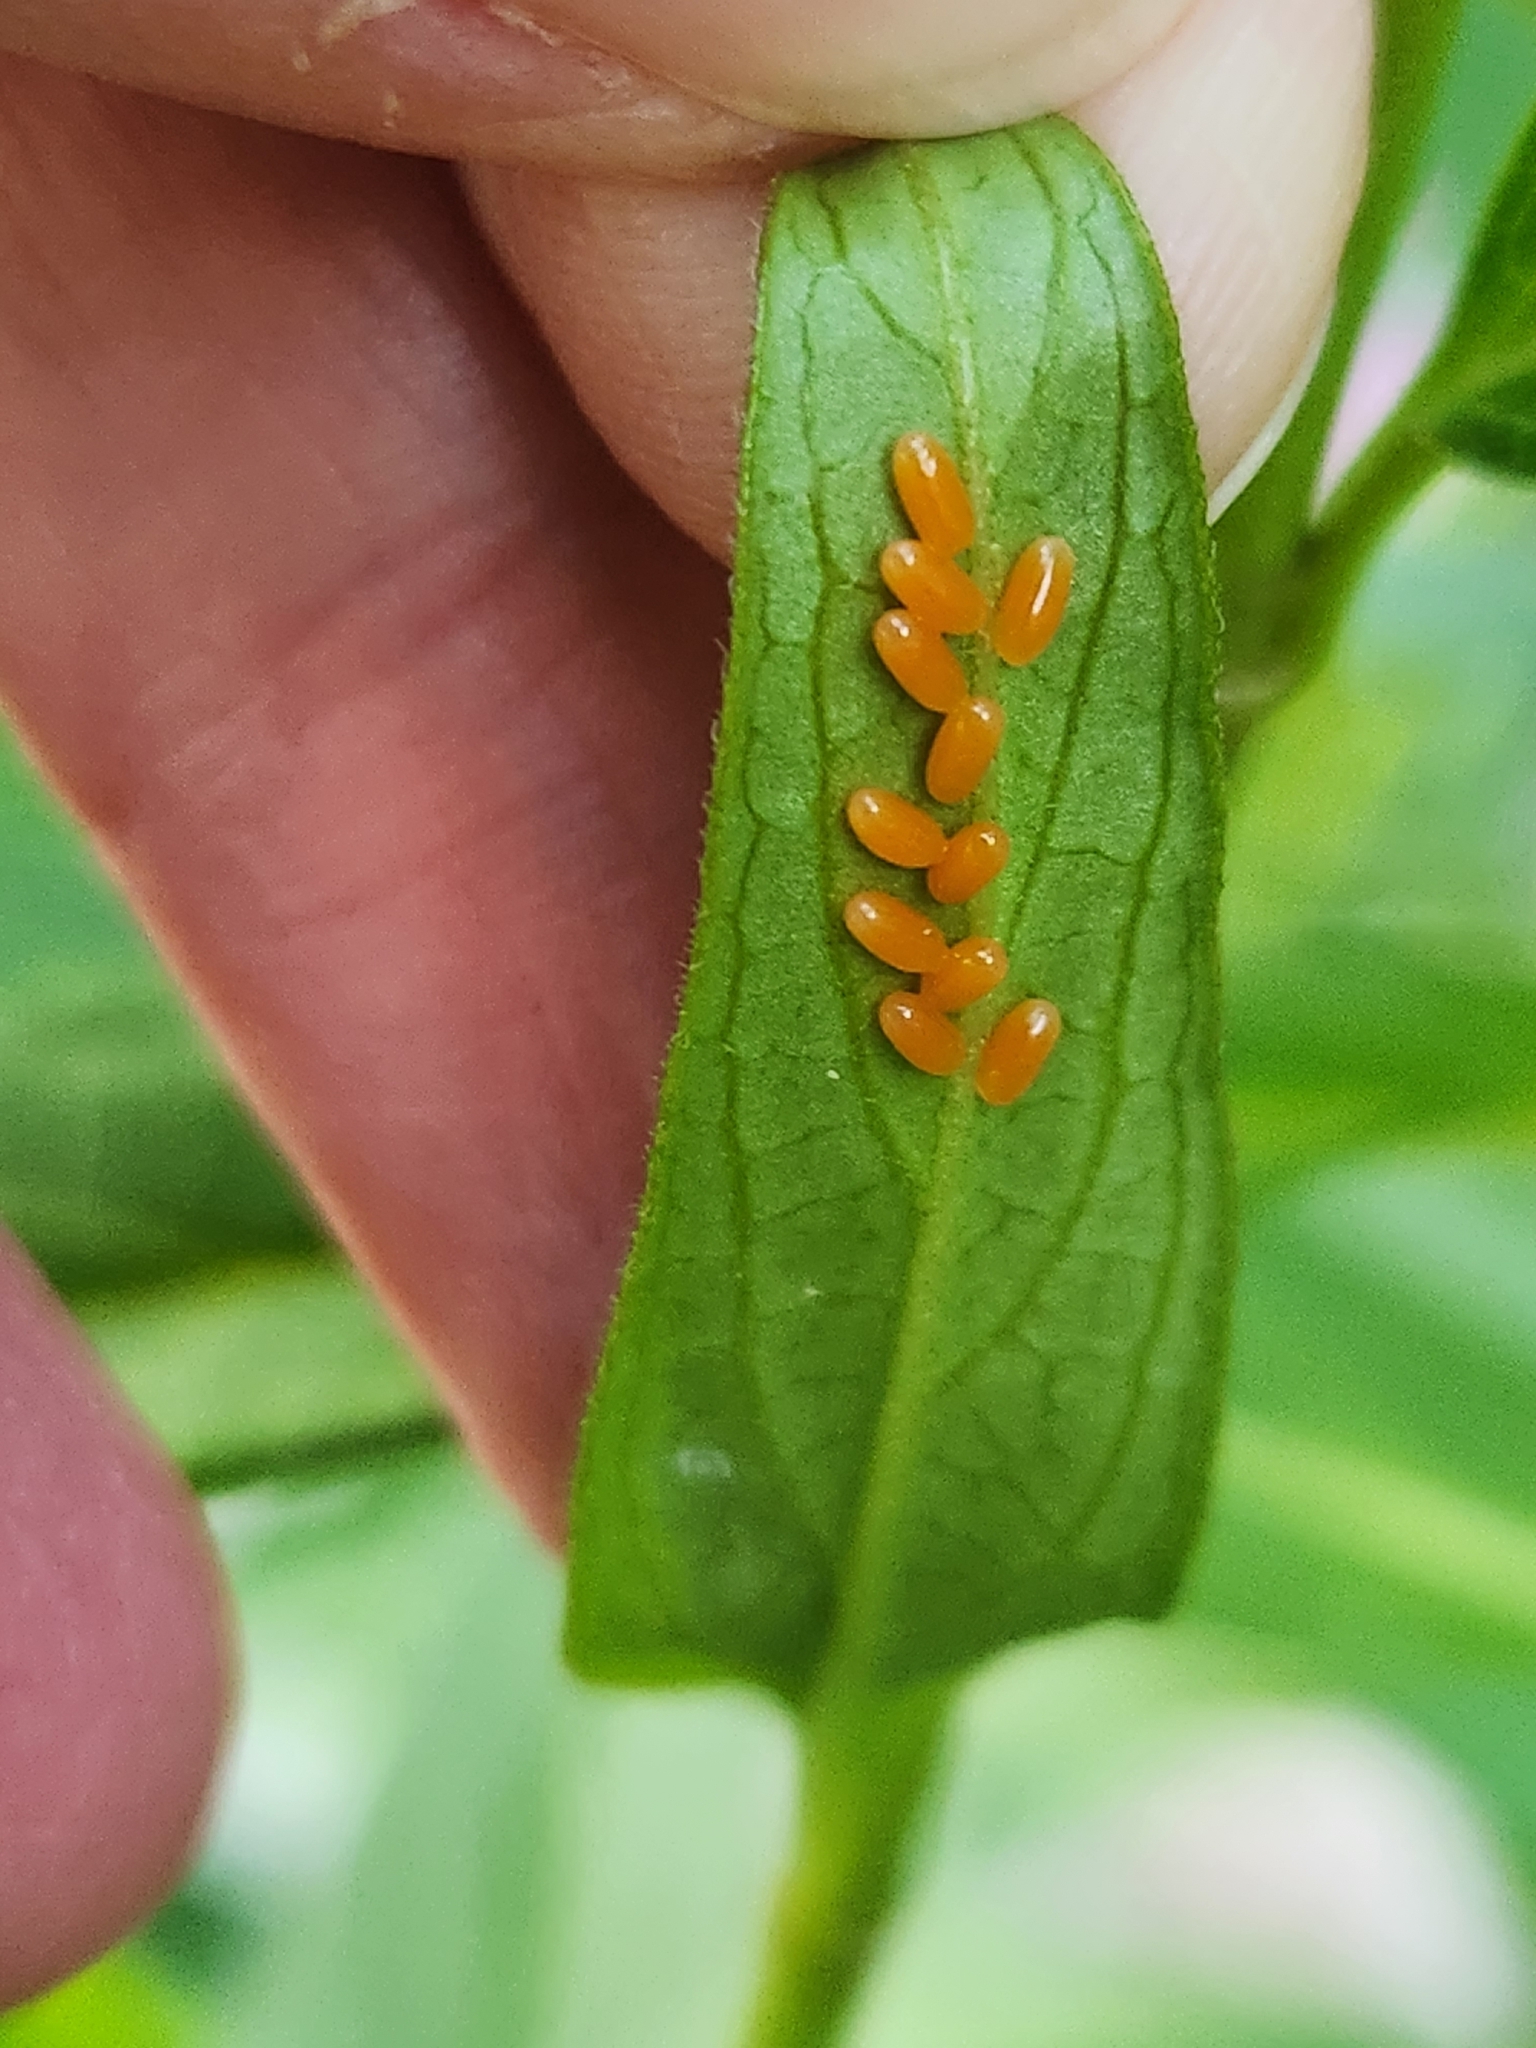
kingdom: Animalia
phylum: Arthropoda
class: Insecta
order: Coleoptera
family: Chrysomelidae
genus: Labidomera
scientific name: Labidomera clivicollis
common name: Swamp milkweed leaf beetle
